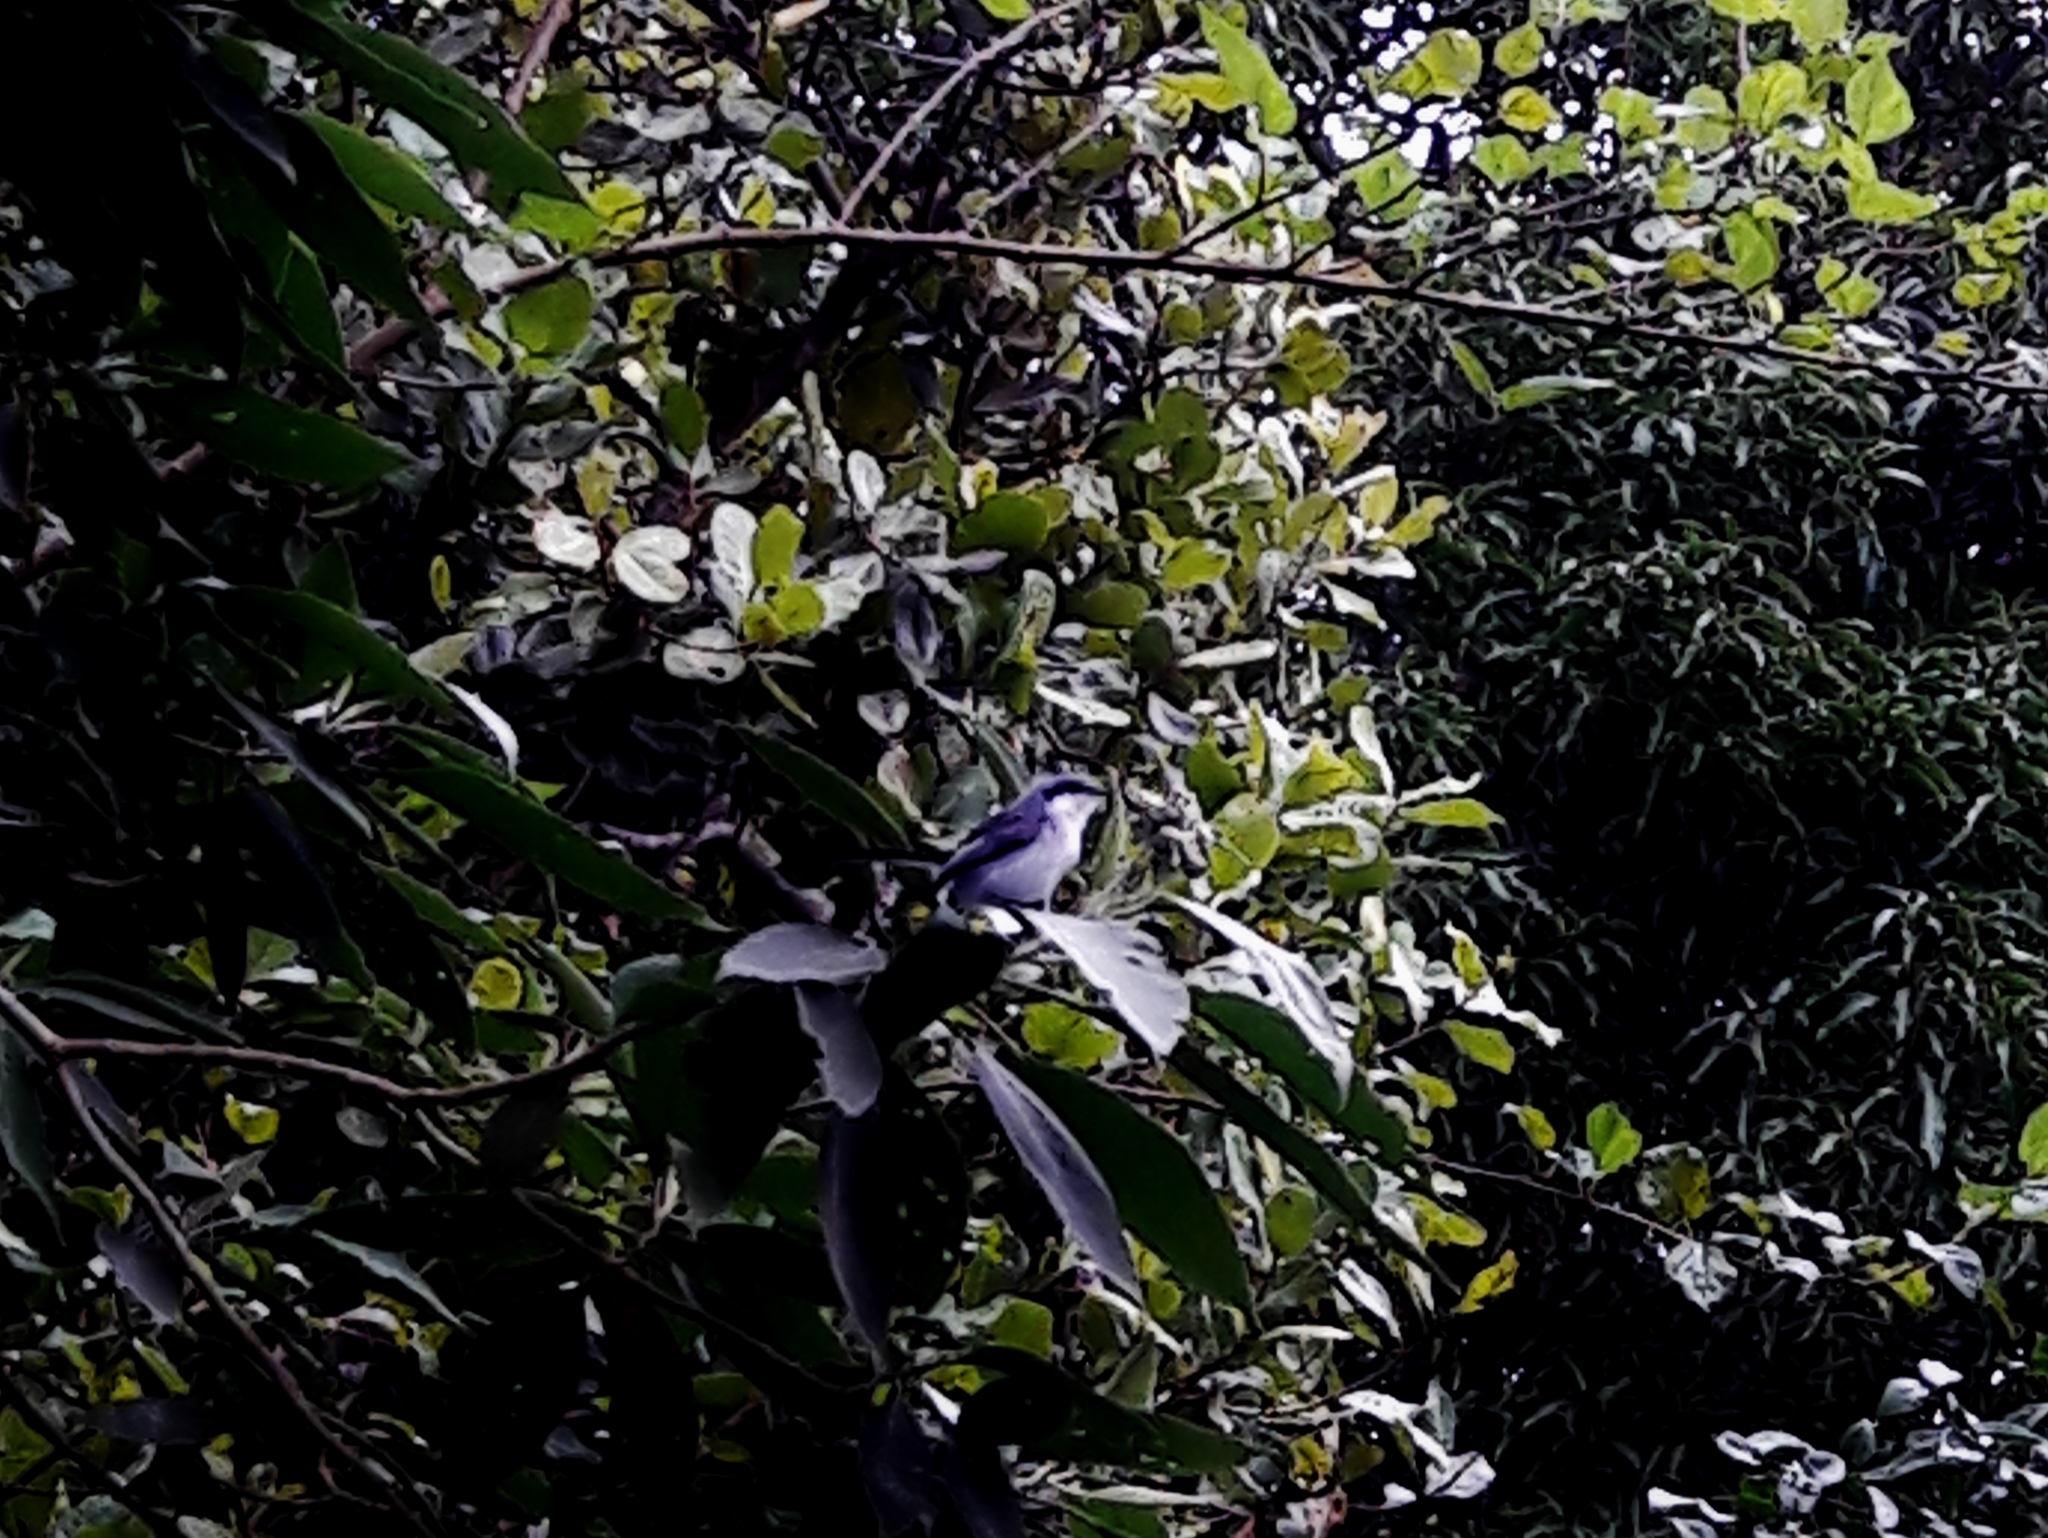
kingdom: Animalia
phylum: Chordata
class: Aves
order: Passeriformes
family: Polioptilidae
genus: Polioptila
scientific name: Polioptila dumicola
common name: Masked gnatcatcher
